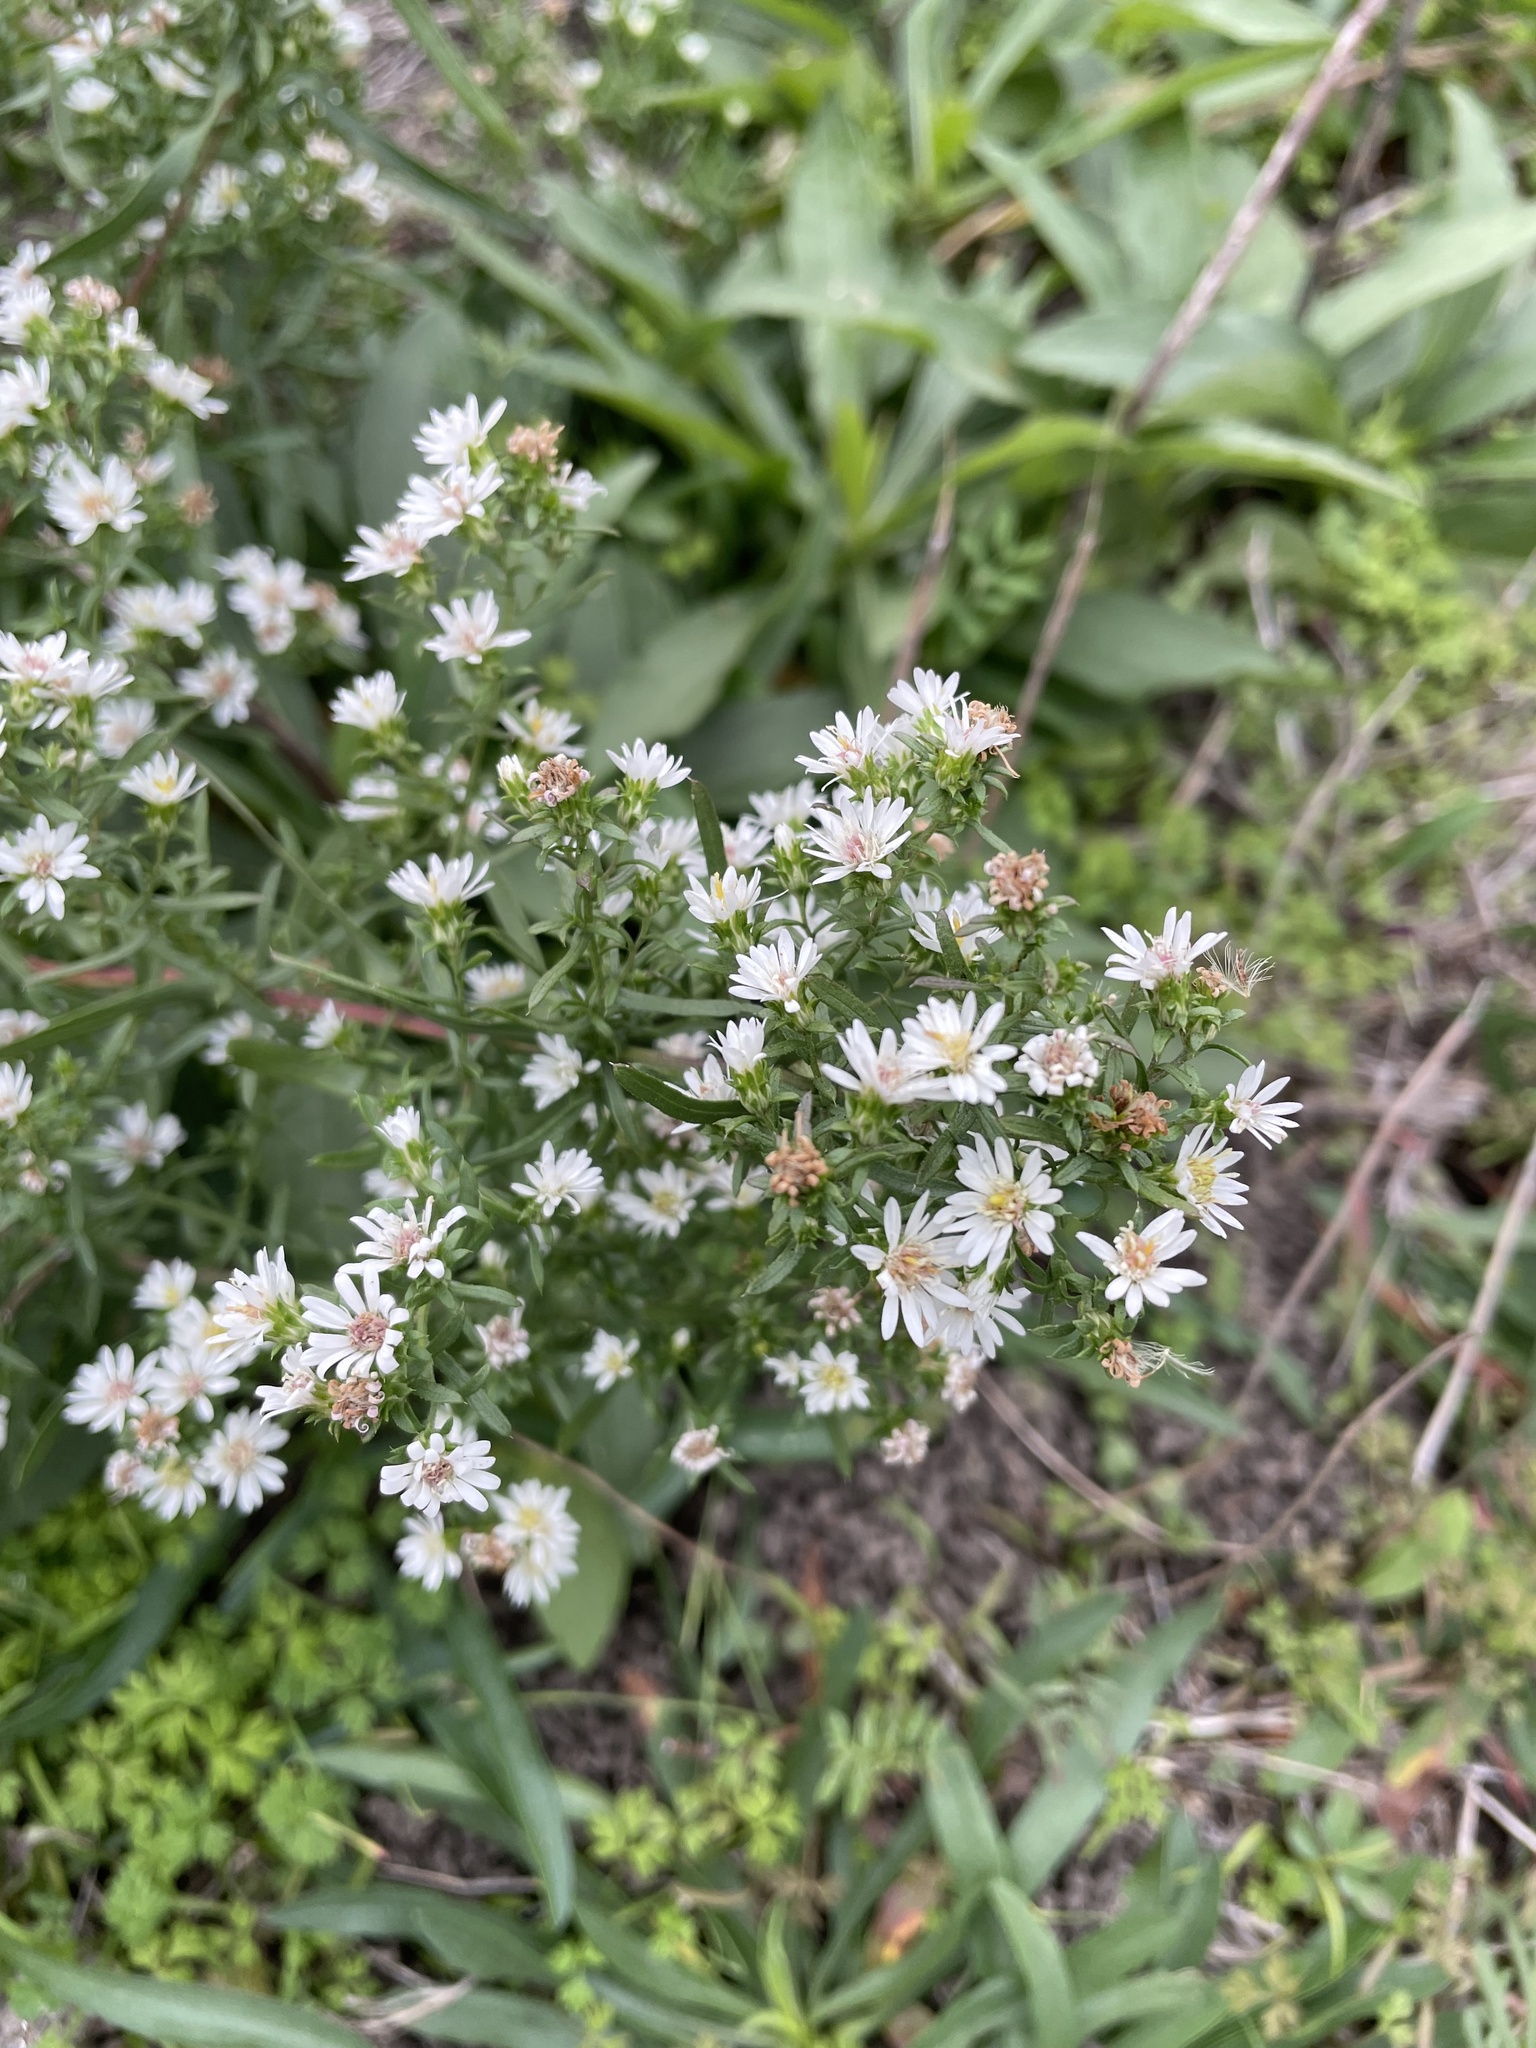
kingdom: Plantae
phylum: Tracheophyta
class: Magnoliopsida
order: Asterales
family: Asteraceae
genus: Symphyotrichum
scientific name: Symphyotrichum ericoides
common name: Heath aster
